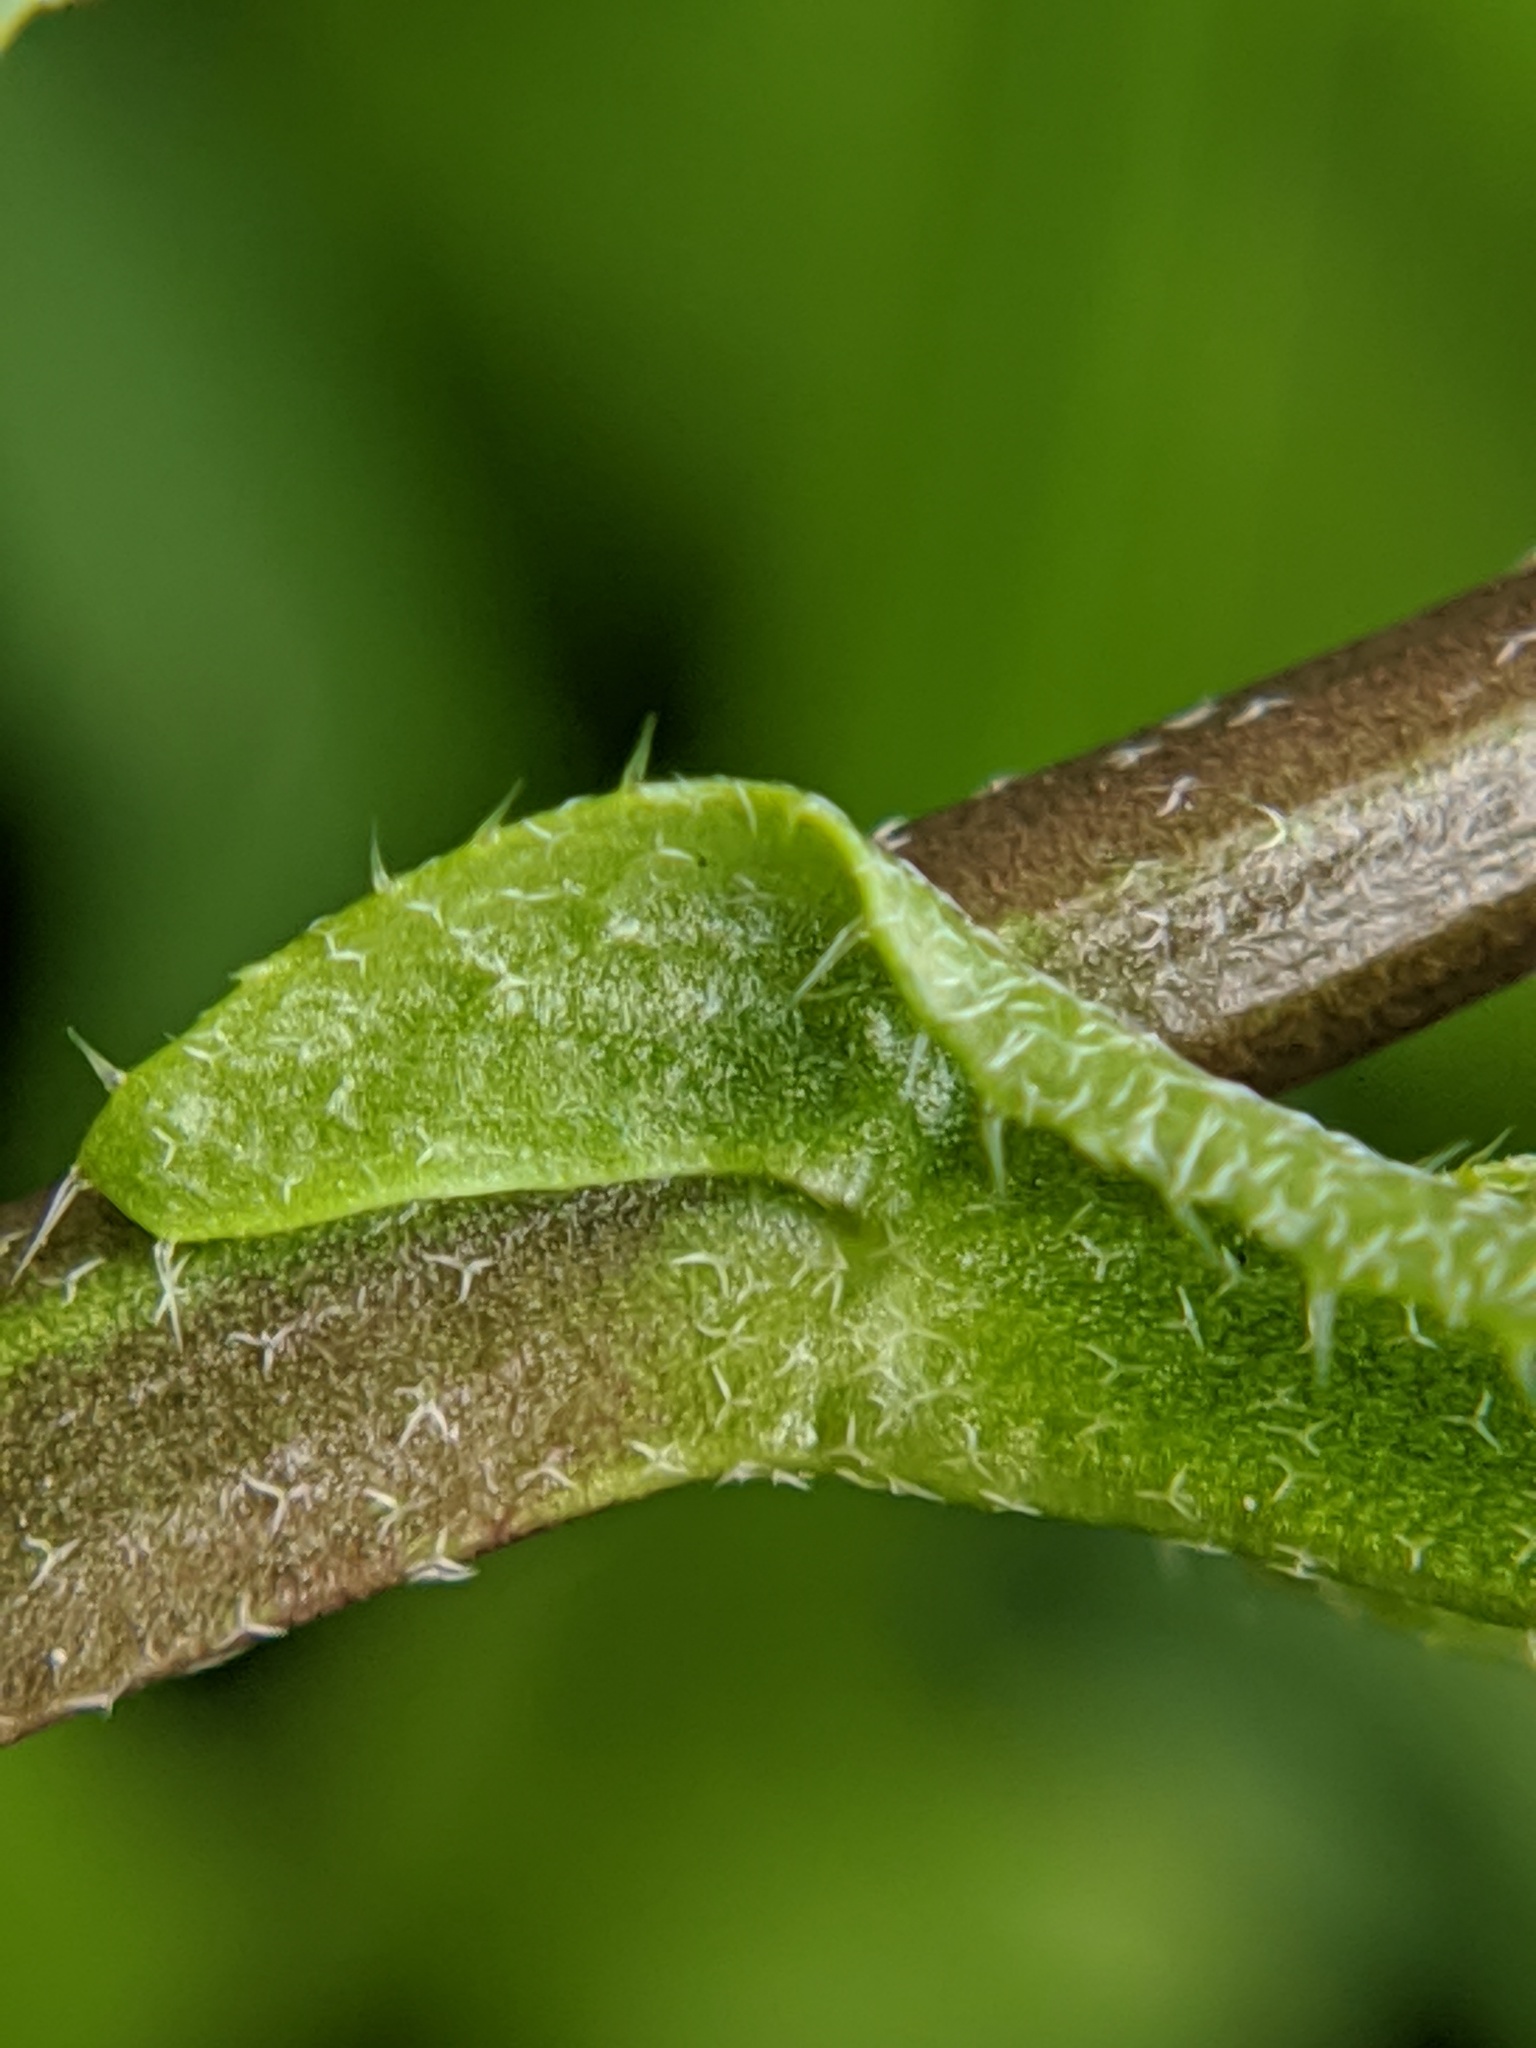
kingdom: Plantae
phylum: Tracheophyta
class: Magnoliopsida
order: Brassicales
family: Brassicaceae
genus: Capsella
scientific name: Capsella bursa-pastoris
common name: Shepherd's purse
